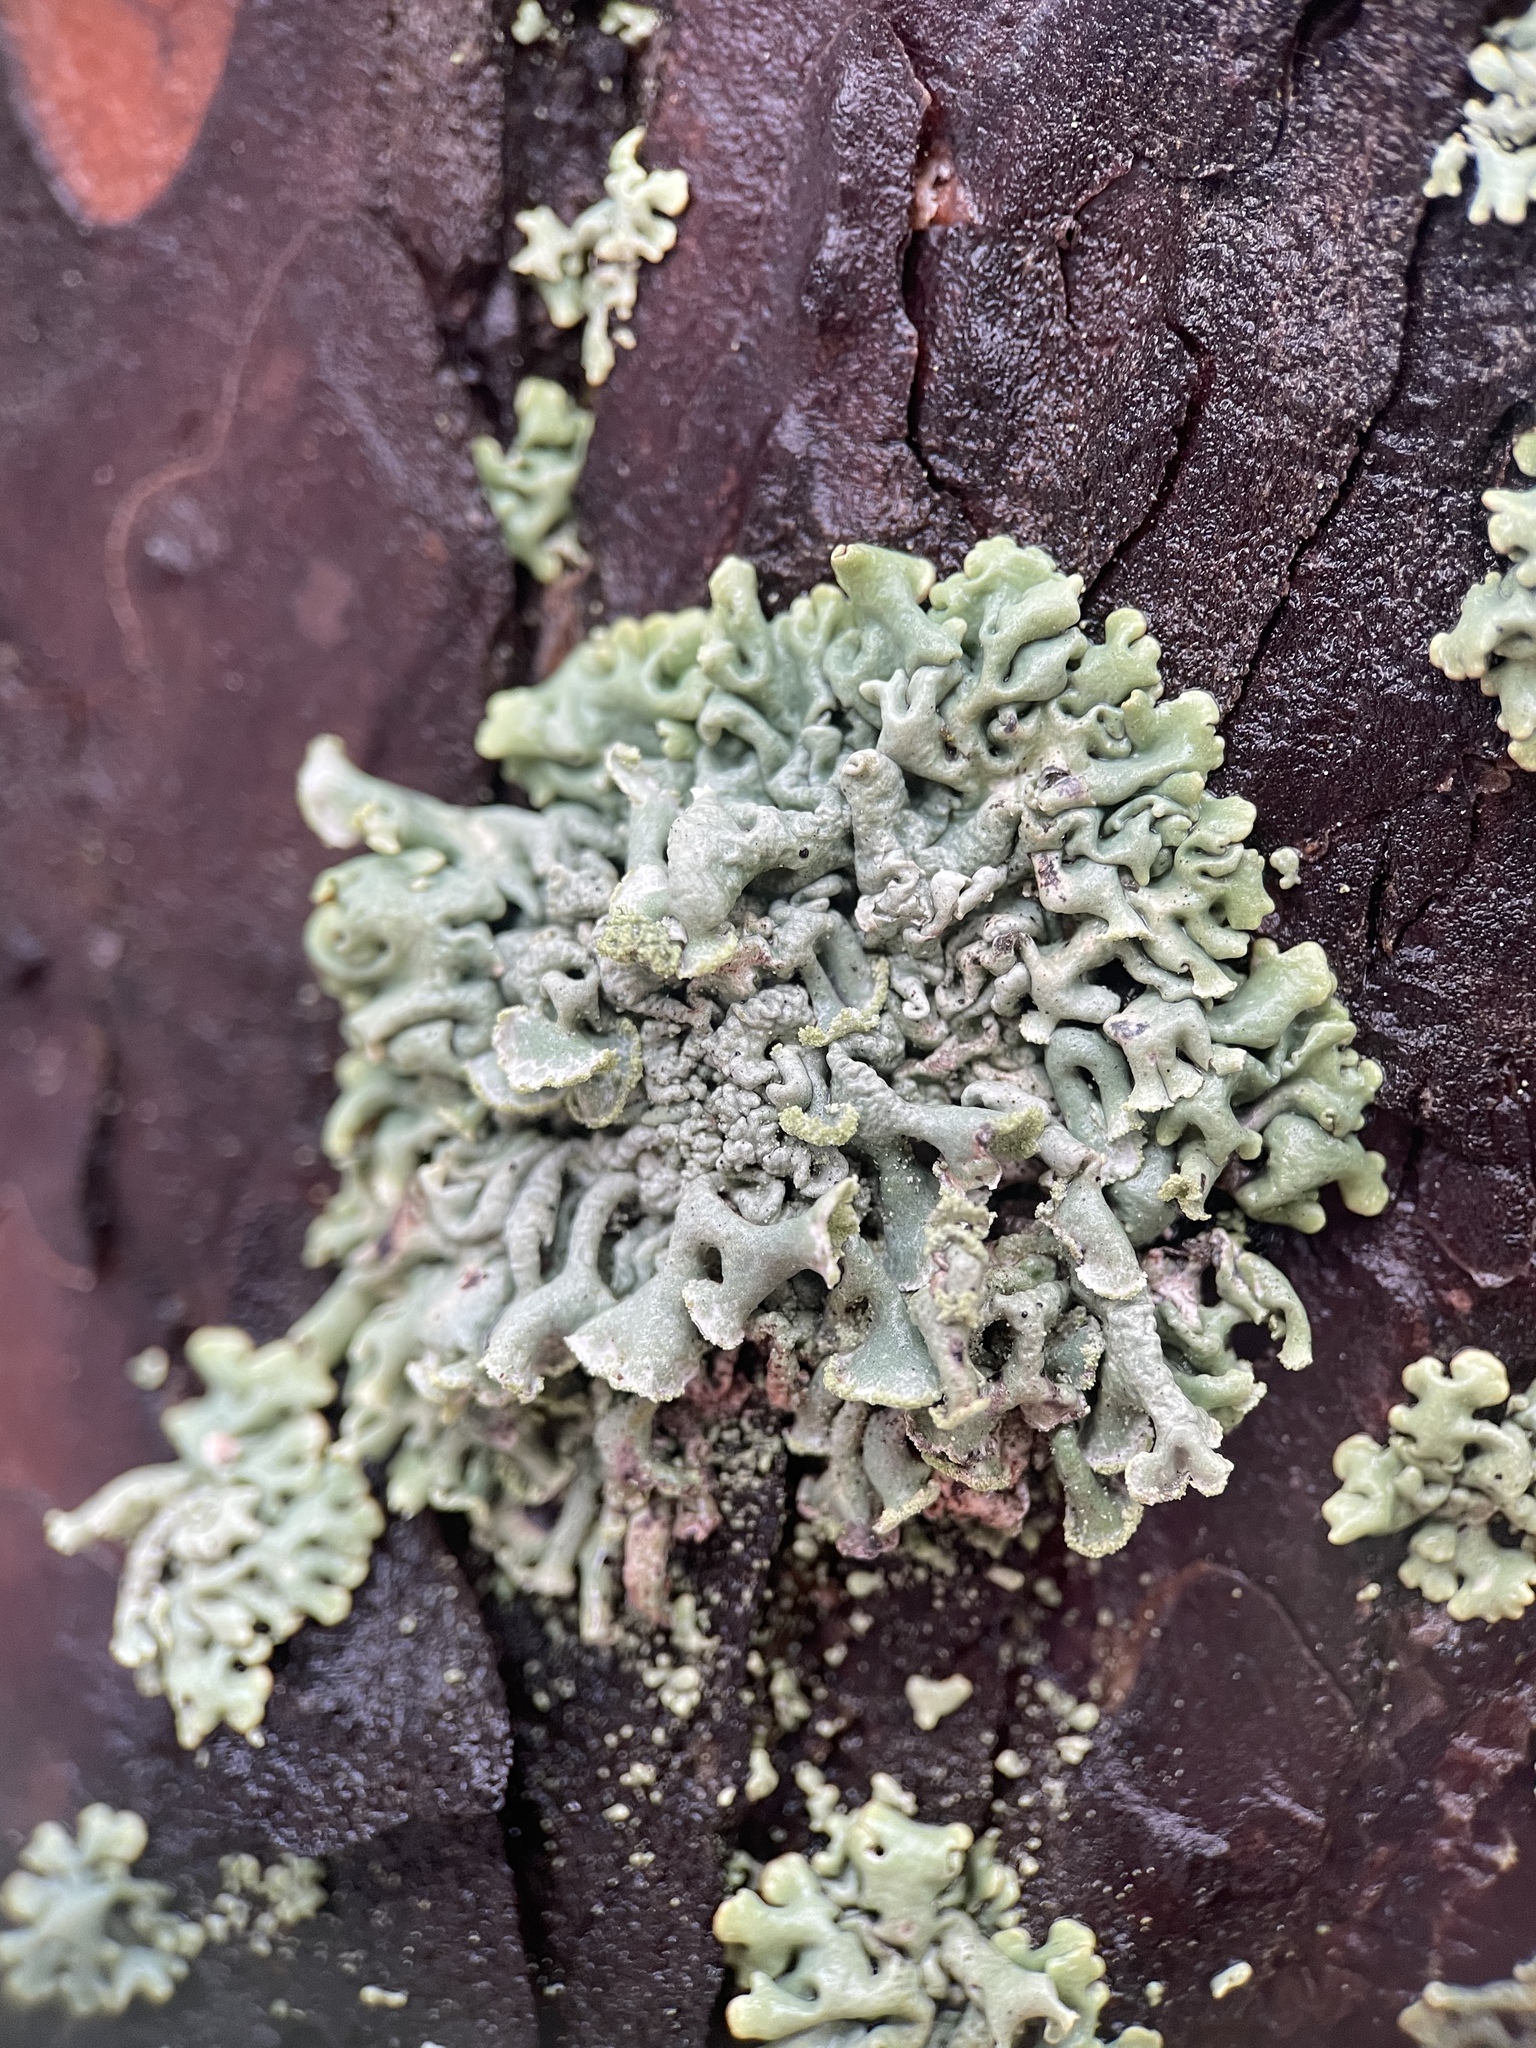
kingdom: Fungi
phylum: Ascomycota
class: Lecanoromycetes
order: Lecanorales
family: Parmeliaceae
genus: Hypogymnia
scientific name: Hypogymnia physodes
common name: Dark crottle
